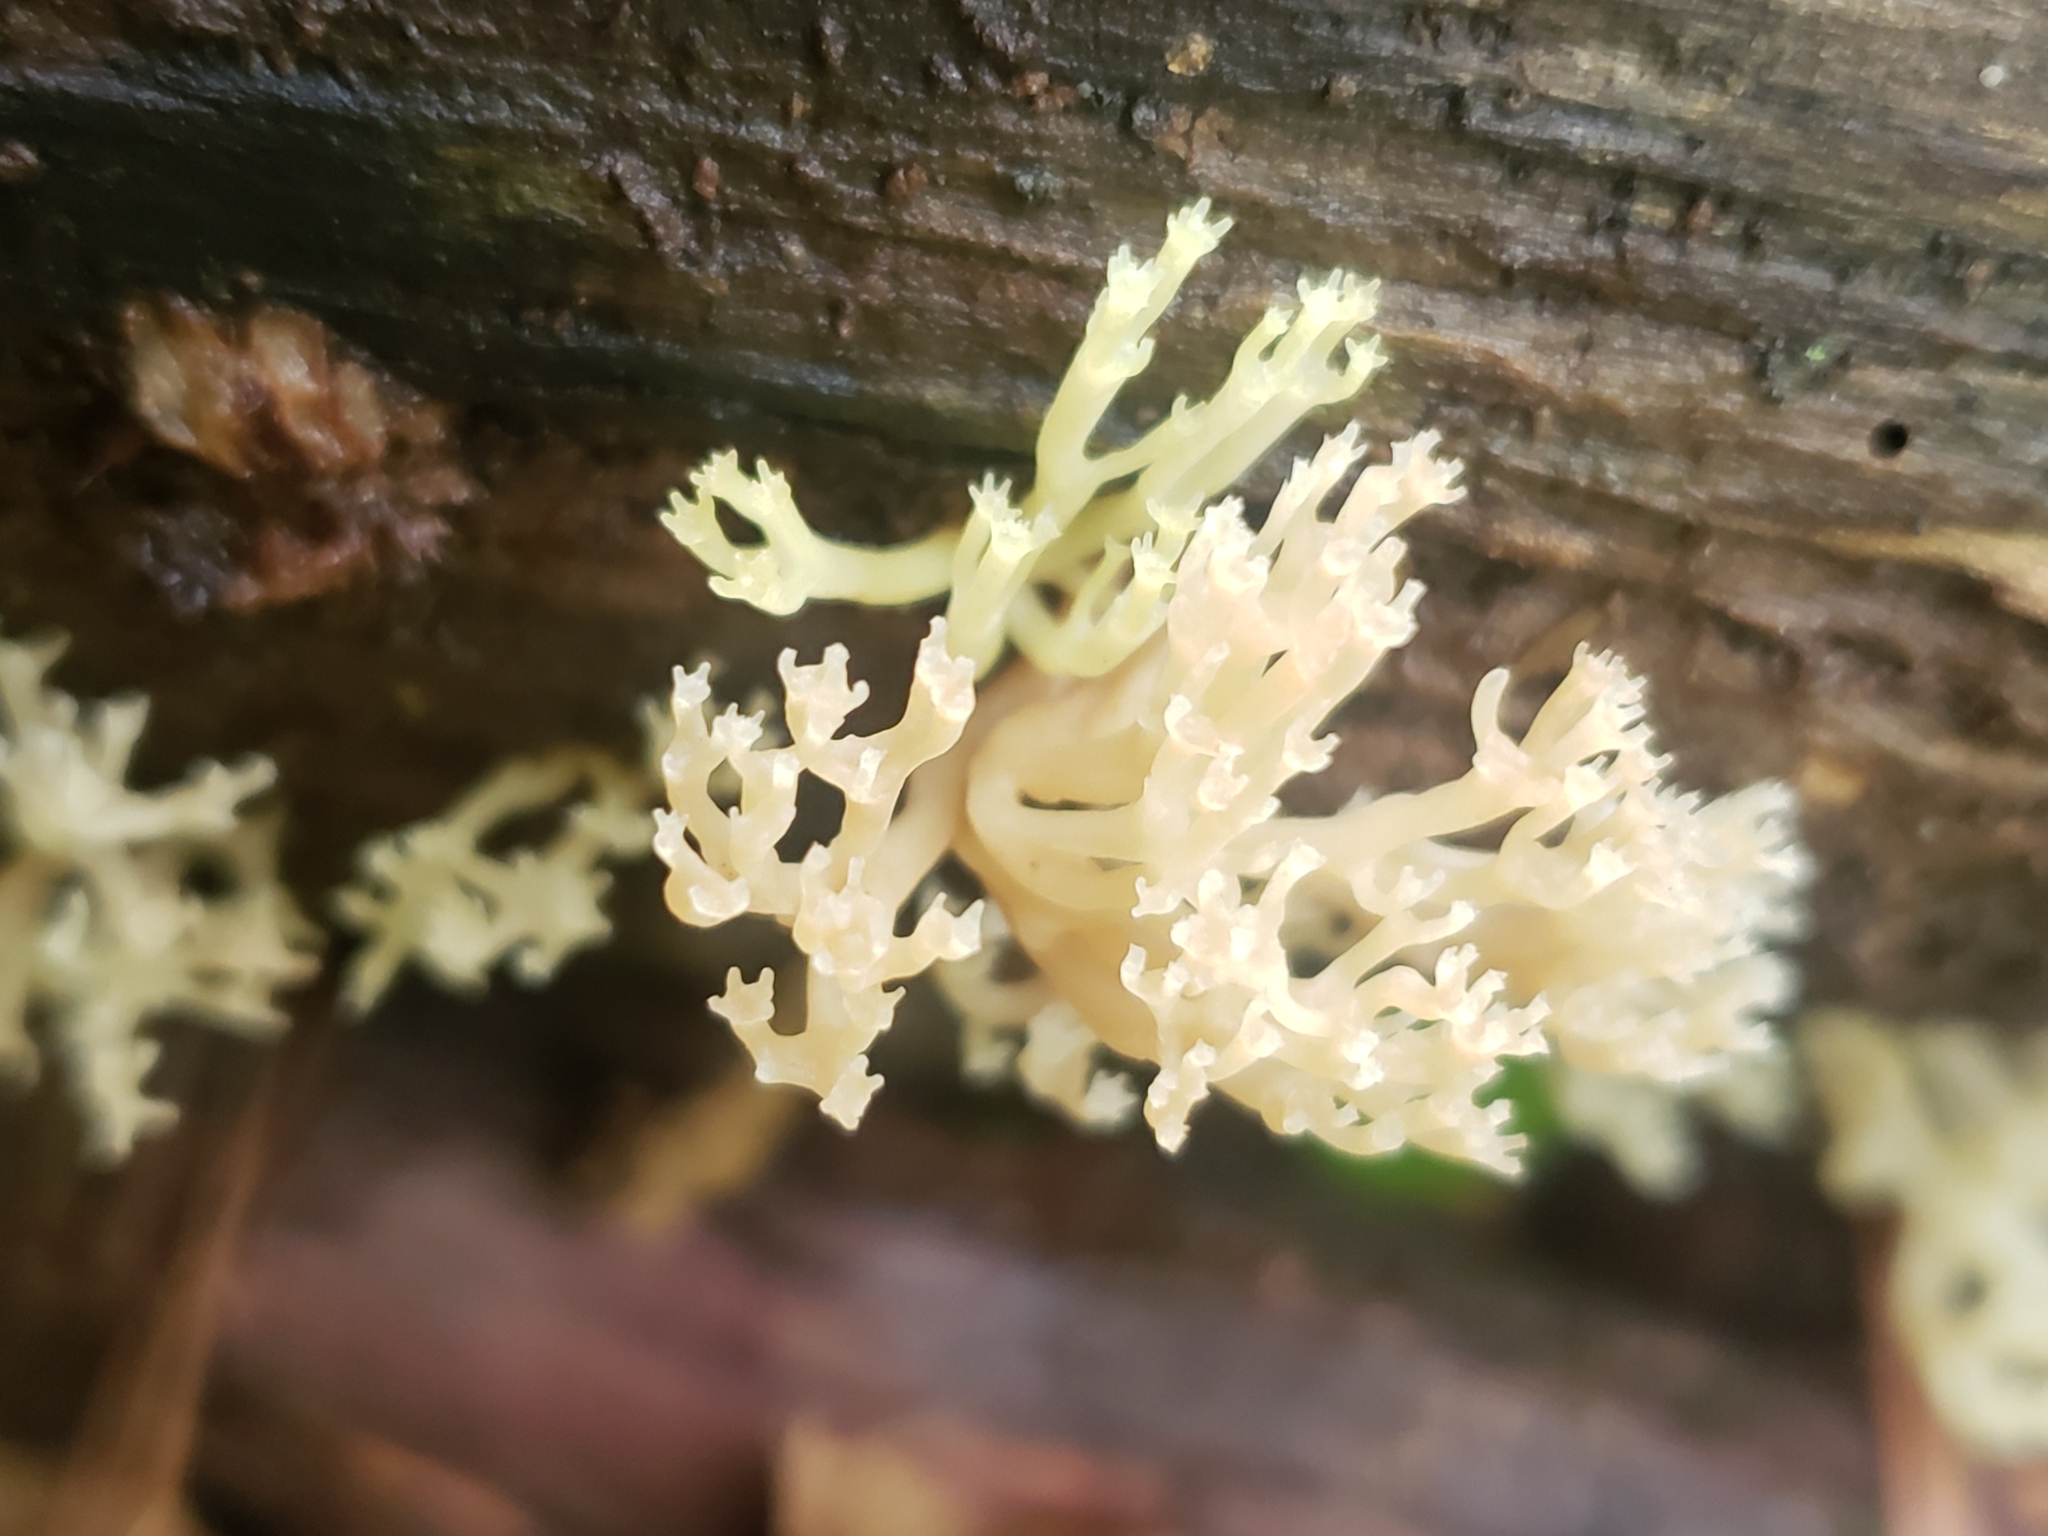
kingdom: Fungi
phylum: Basidiomycota
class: Agaricomycetes
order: Russulales
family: Auriscalpiaceae
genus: Artomyces
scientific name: Artomyces pyxidatus
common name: Crown-tipped coral fungus
